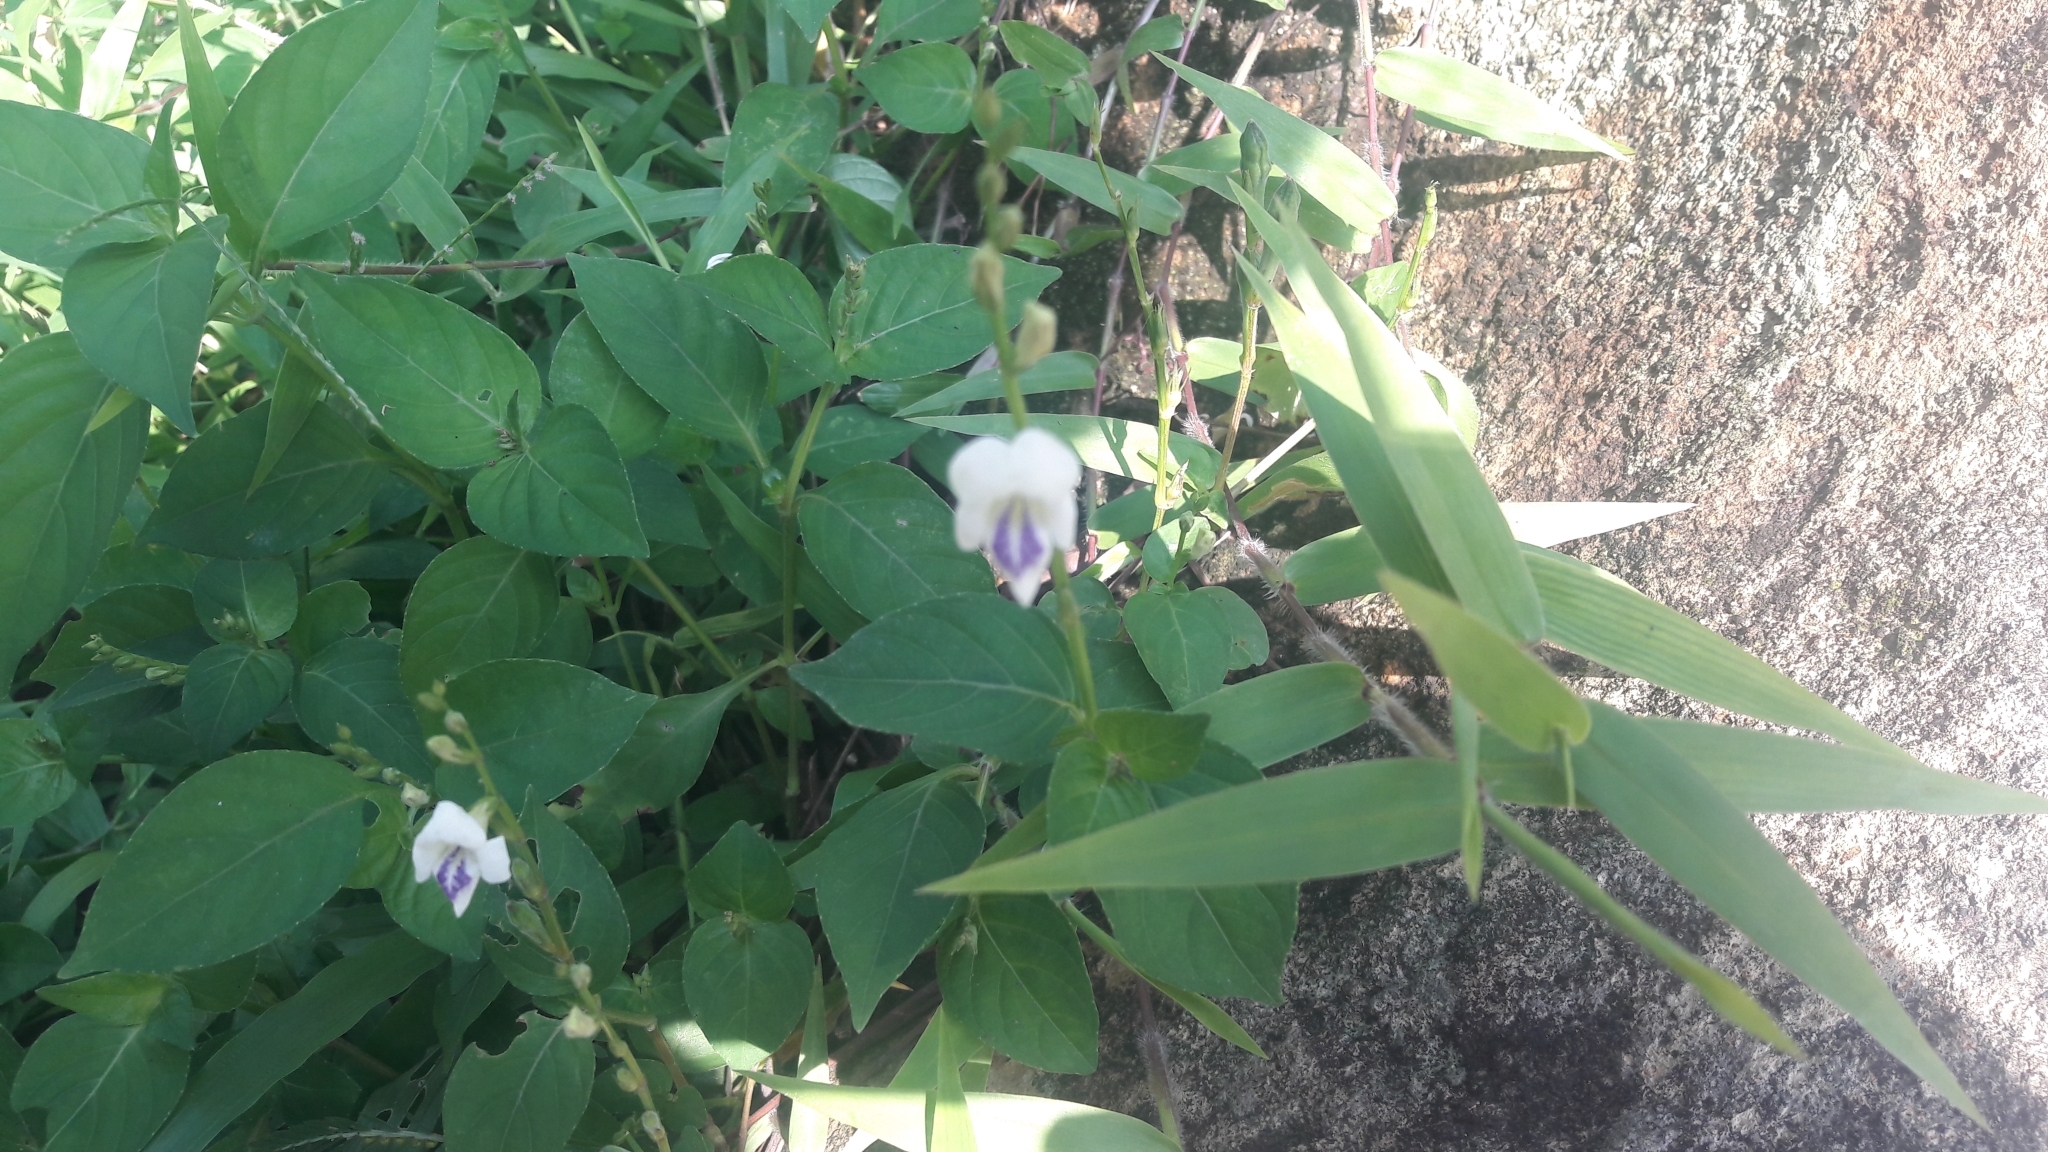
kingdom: Plantae
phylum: Tracheophyta
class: Magnoliopsida
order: Lamiales
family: Acanthaceae
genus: Asystasia
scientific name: Asystasia intrusa
